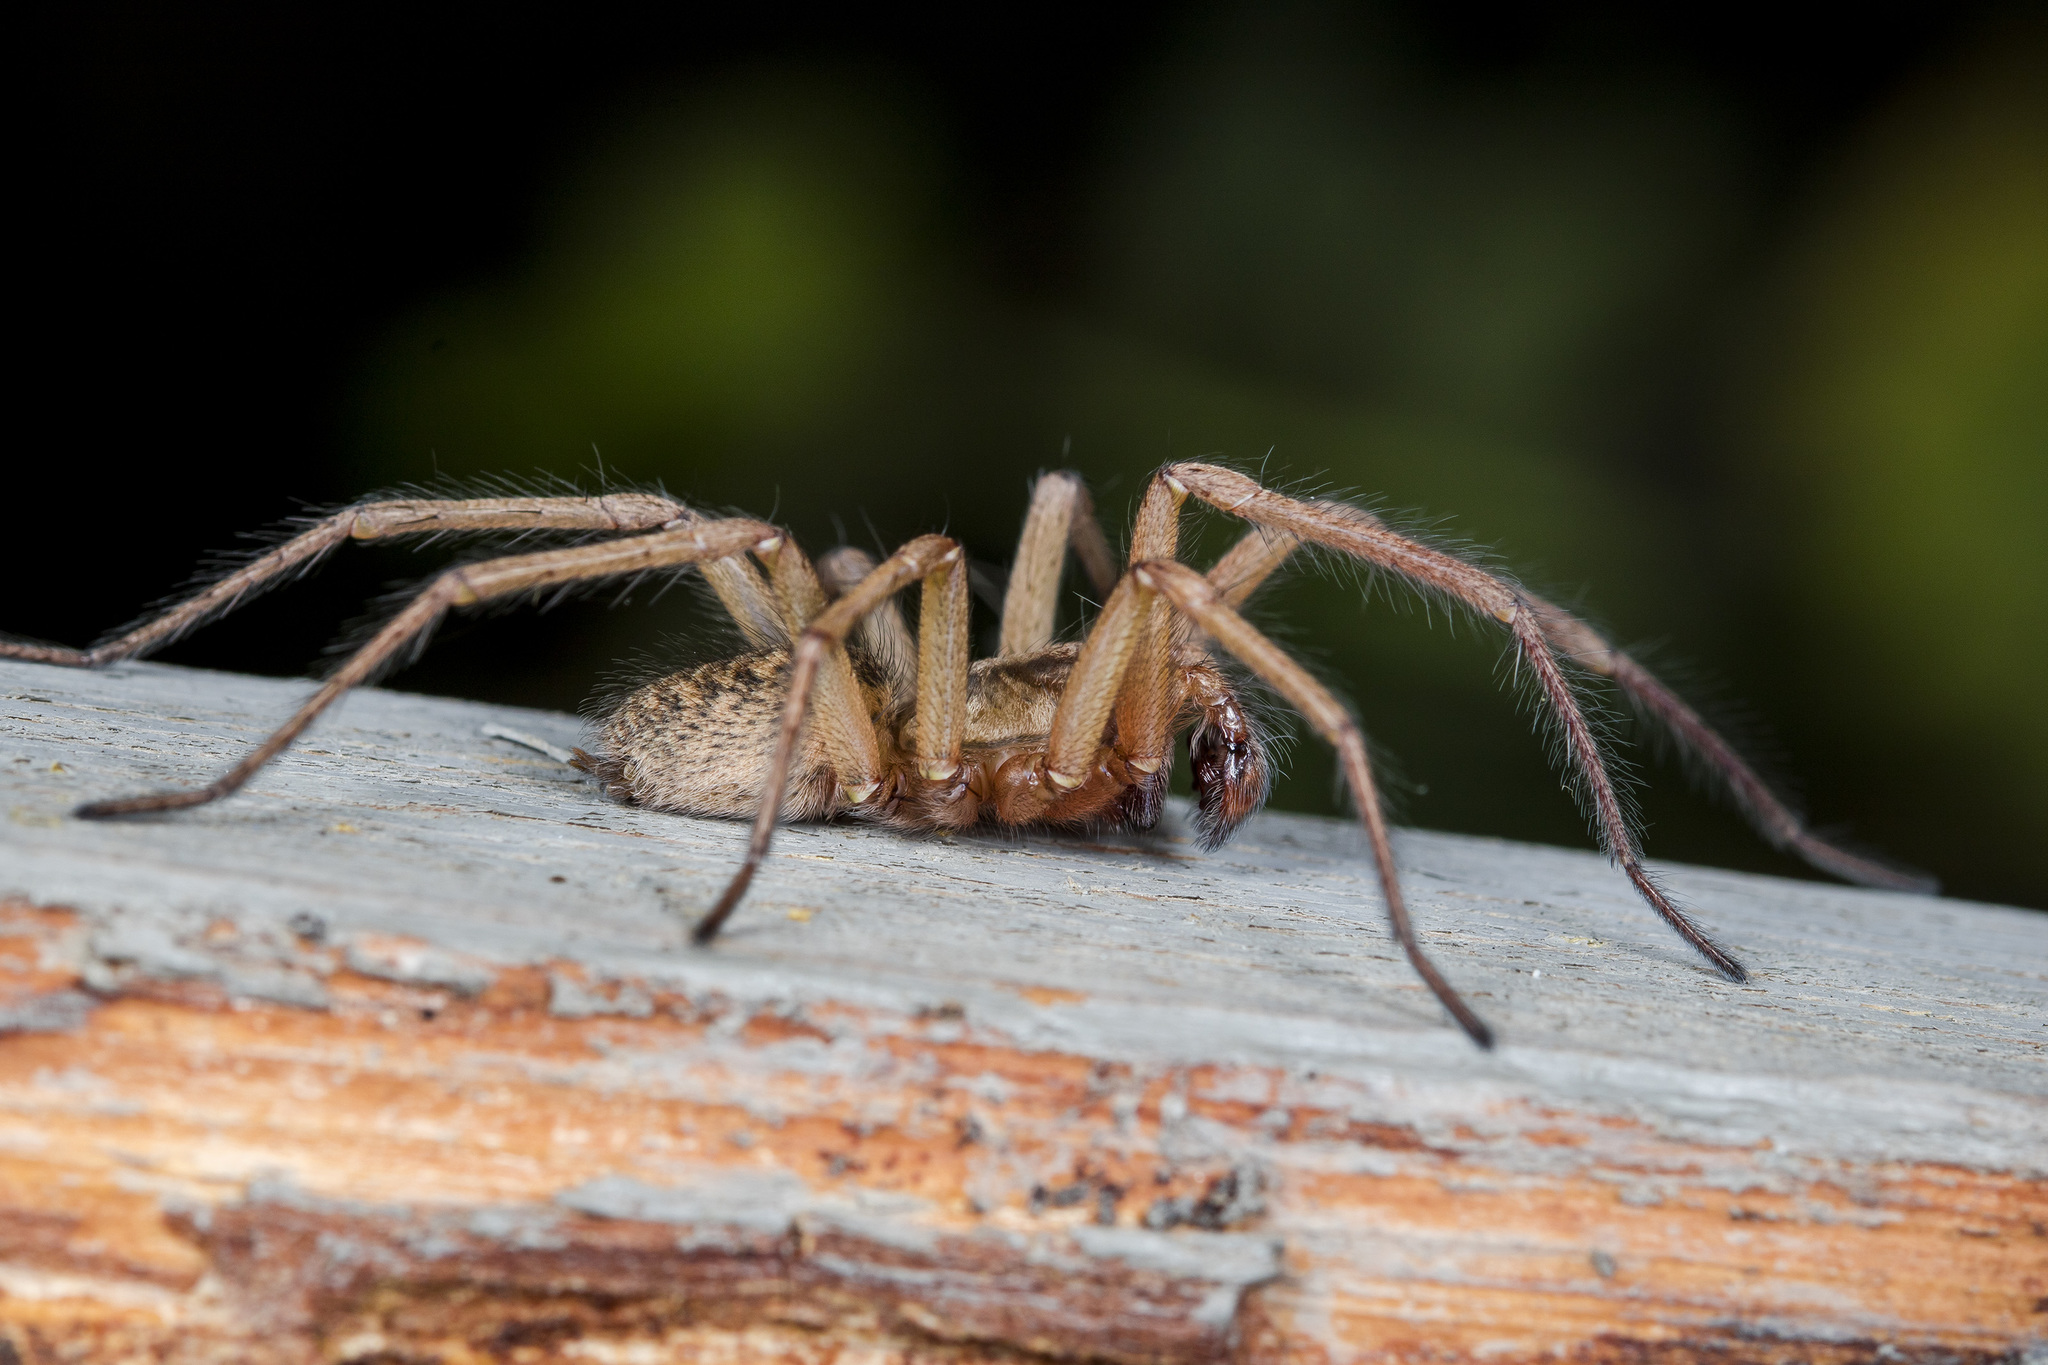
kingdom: Animalia
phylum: Arthropoda
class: Arachnida
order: Araneae
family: Agelenidae
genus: Eratigena
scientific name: Eratigena agrestis
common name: Hobo spider
